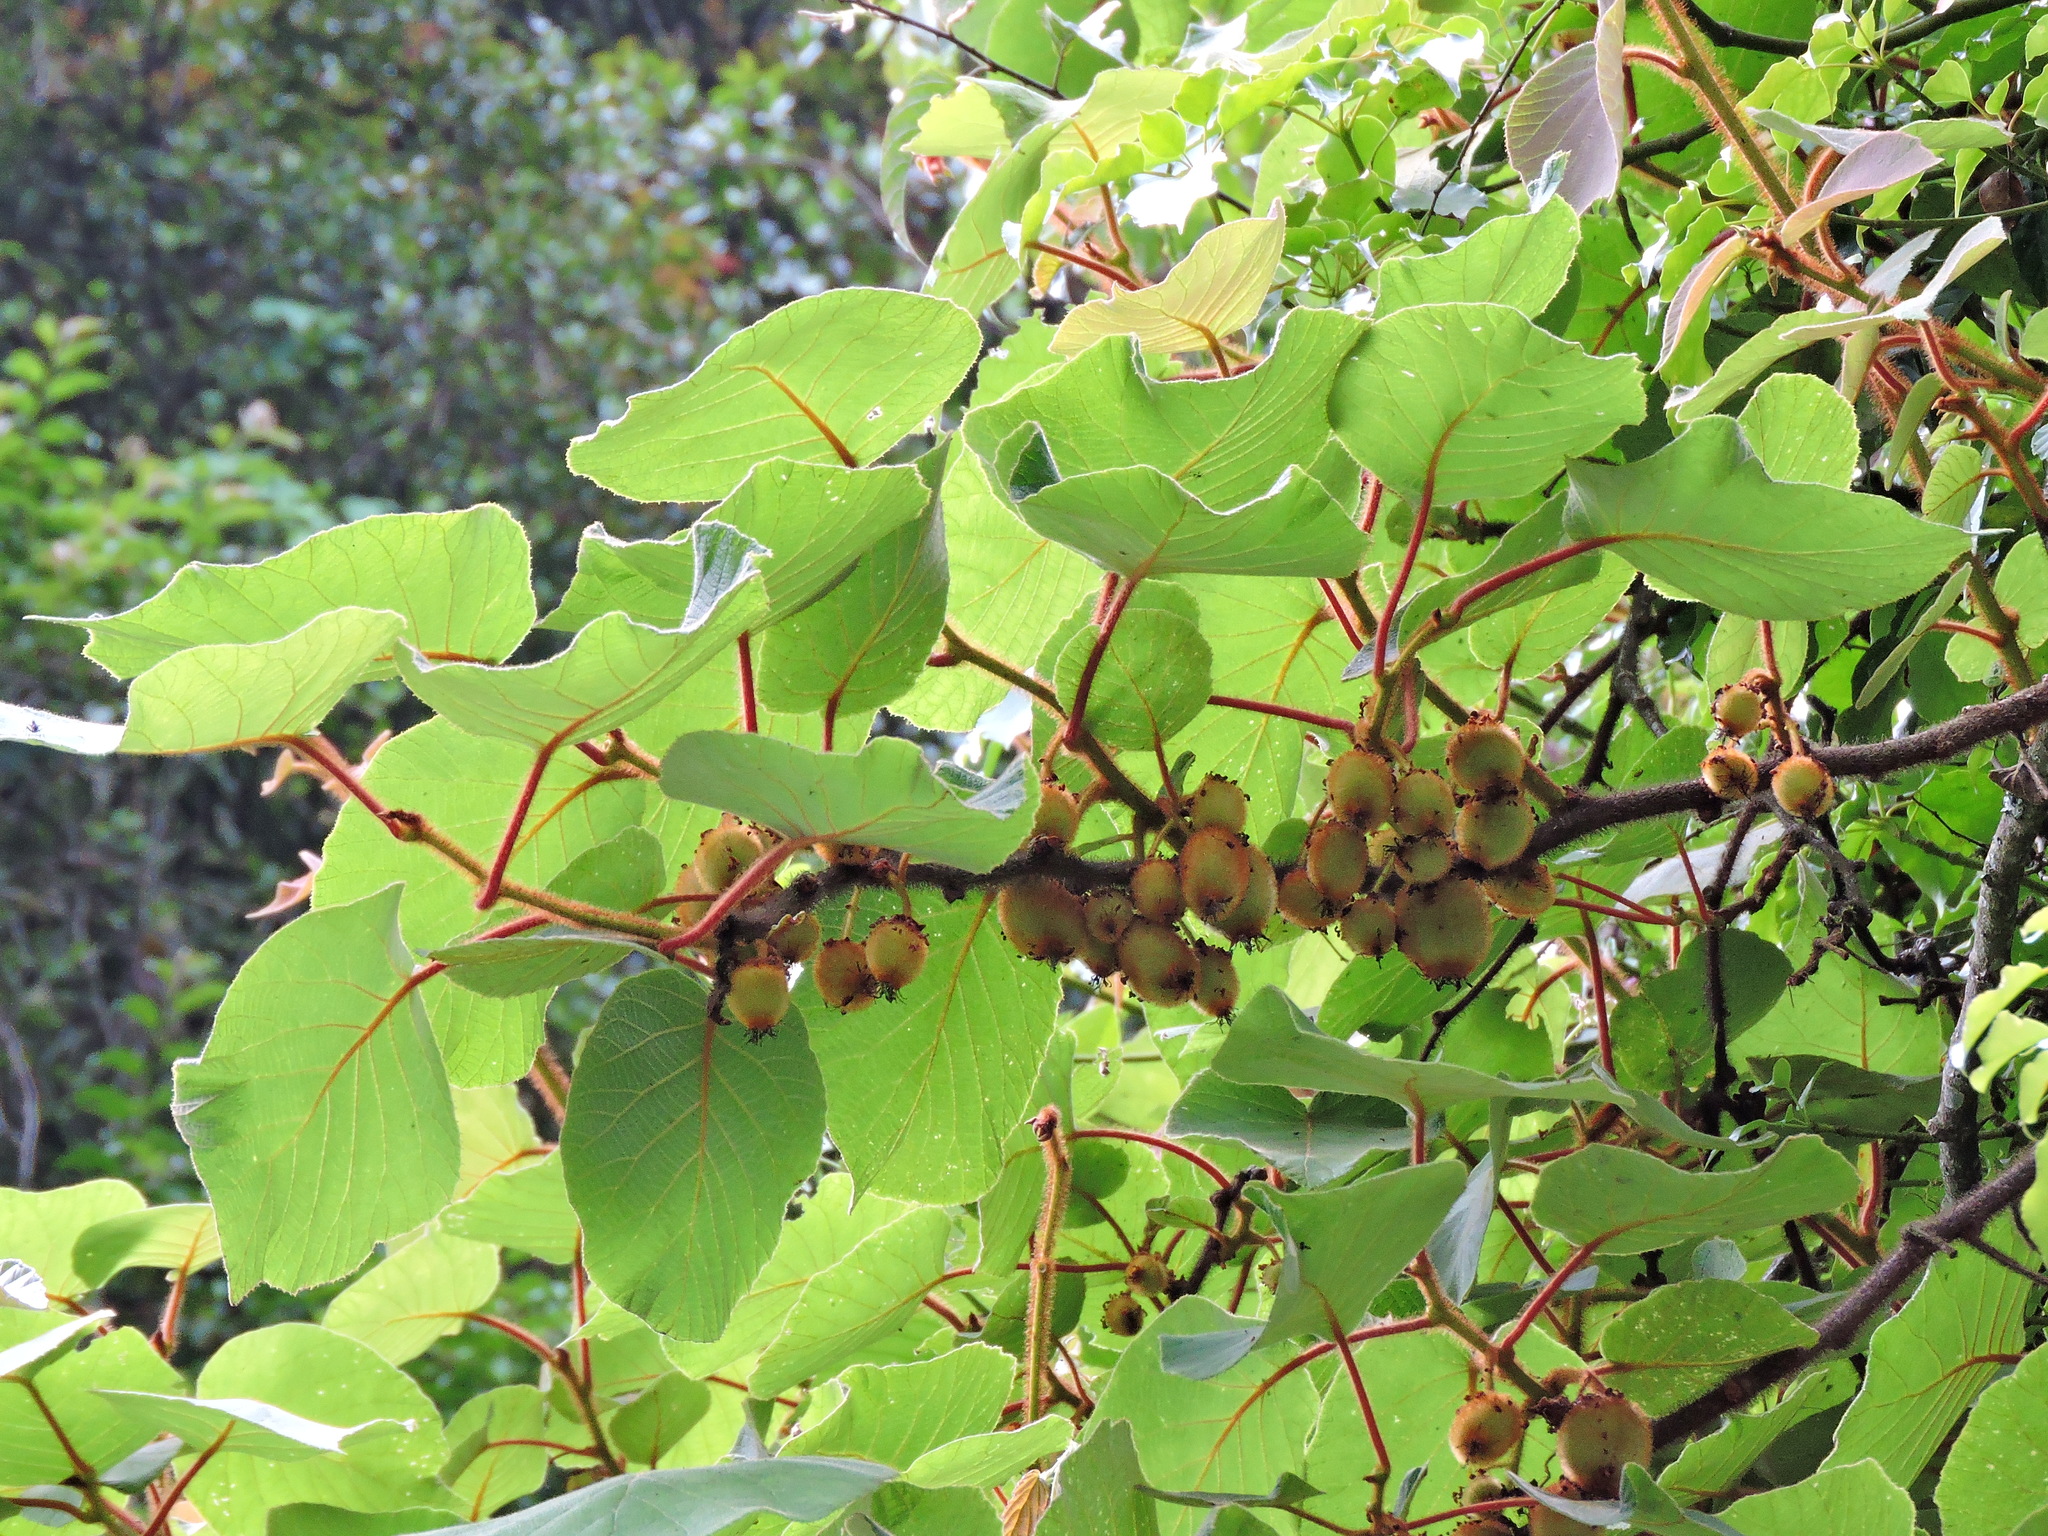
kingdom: Plantae
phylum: Tracheophyta
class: Magnoliopsida
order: Ericales
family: Actinidiaceae
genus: Actinidia
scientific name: Actinidia chinensis
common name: Kiwi
